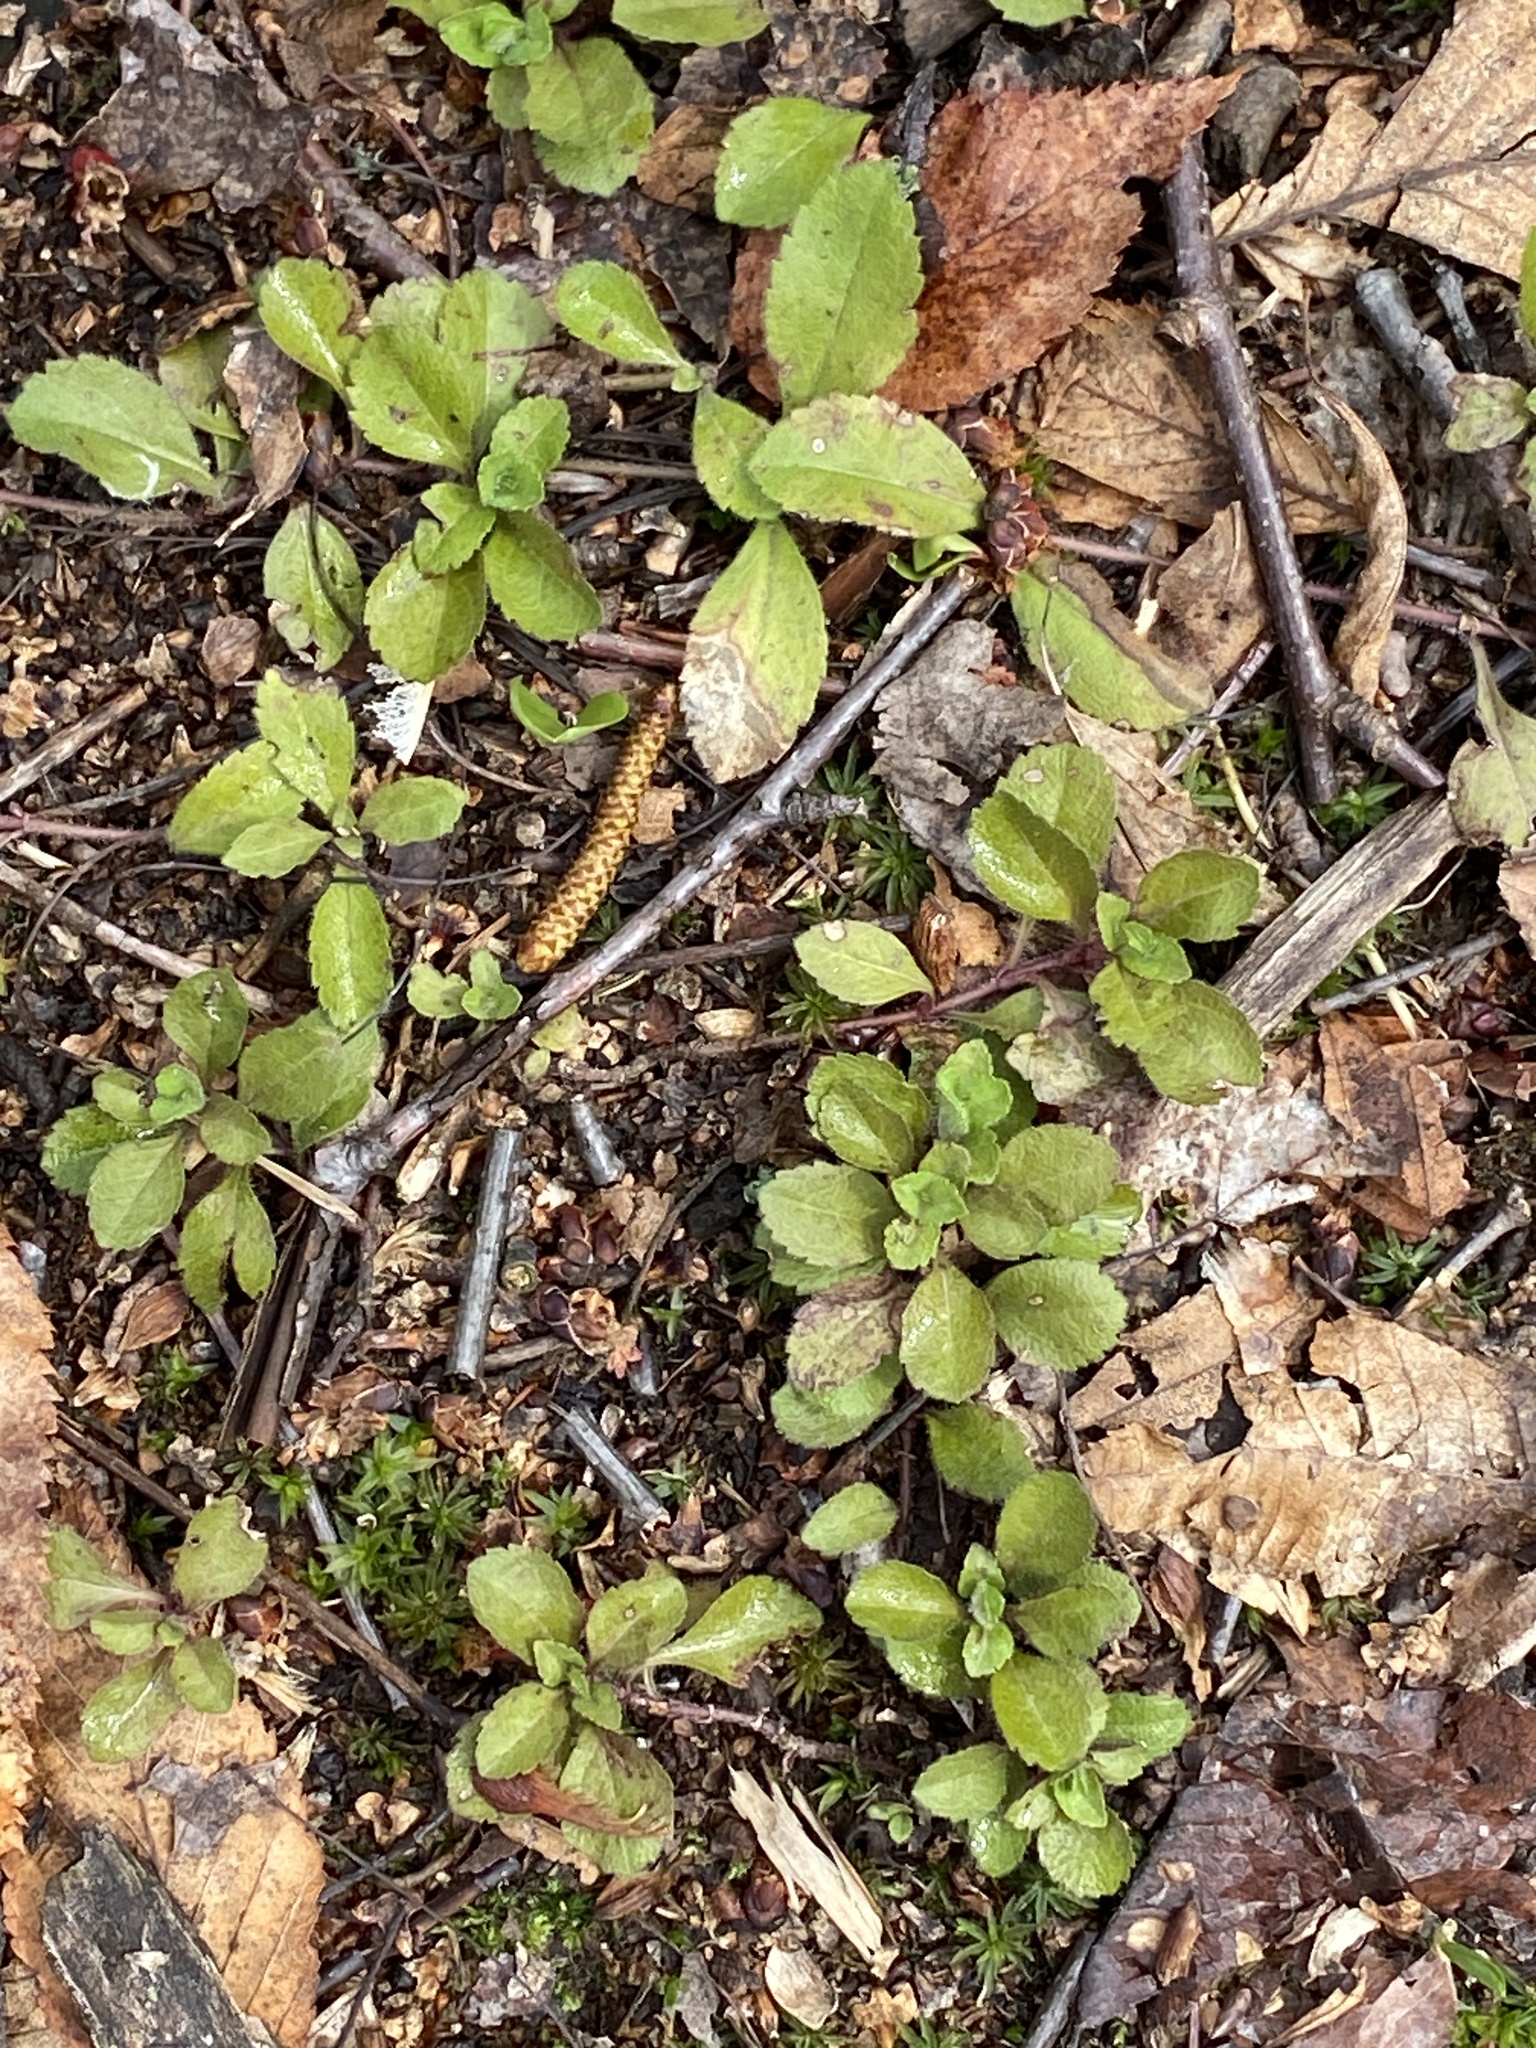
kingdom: Plantae
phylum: Tracheophyta
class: Magnoliopsida
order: Lamiales
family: Plantaginaceae
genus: Veronica
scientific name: Veronica officinalis
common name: Common speedwell
